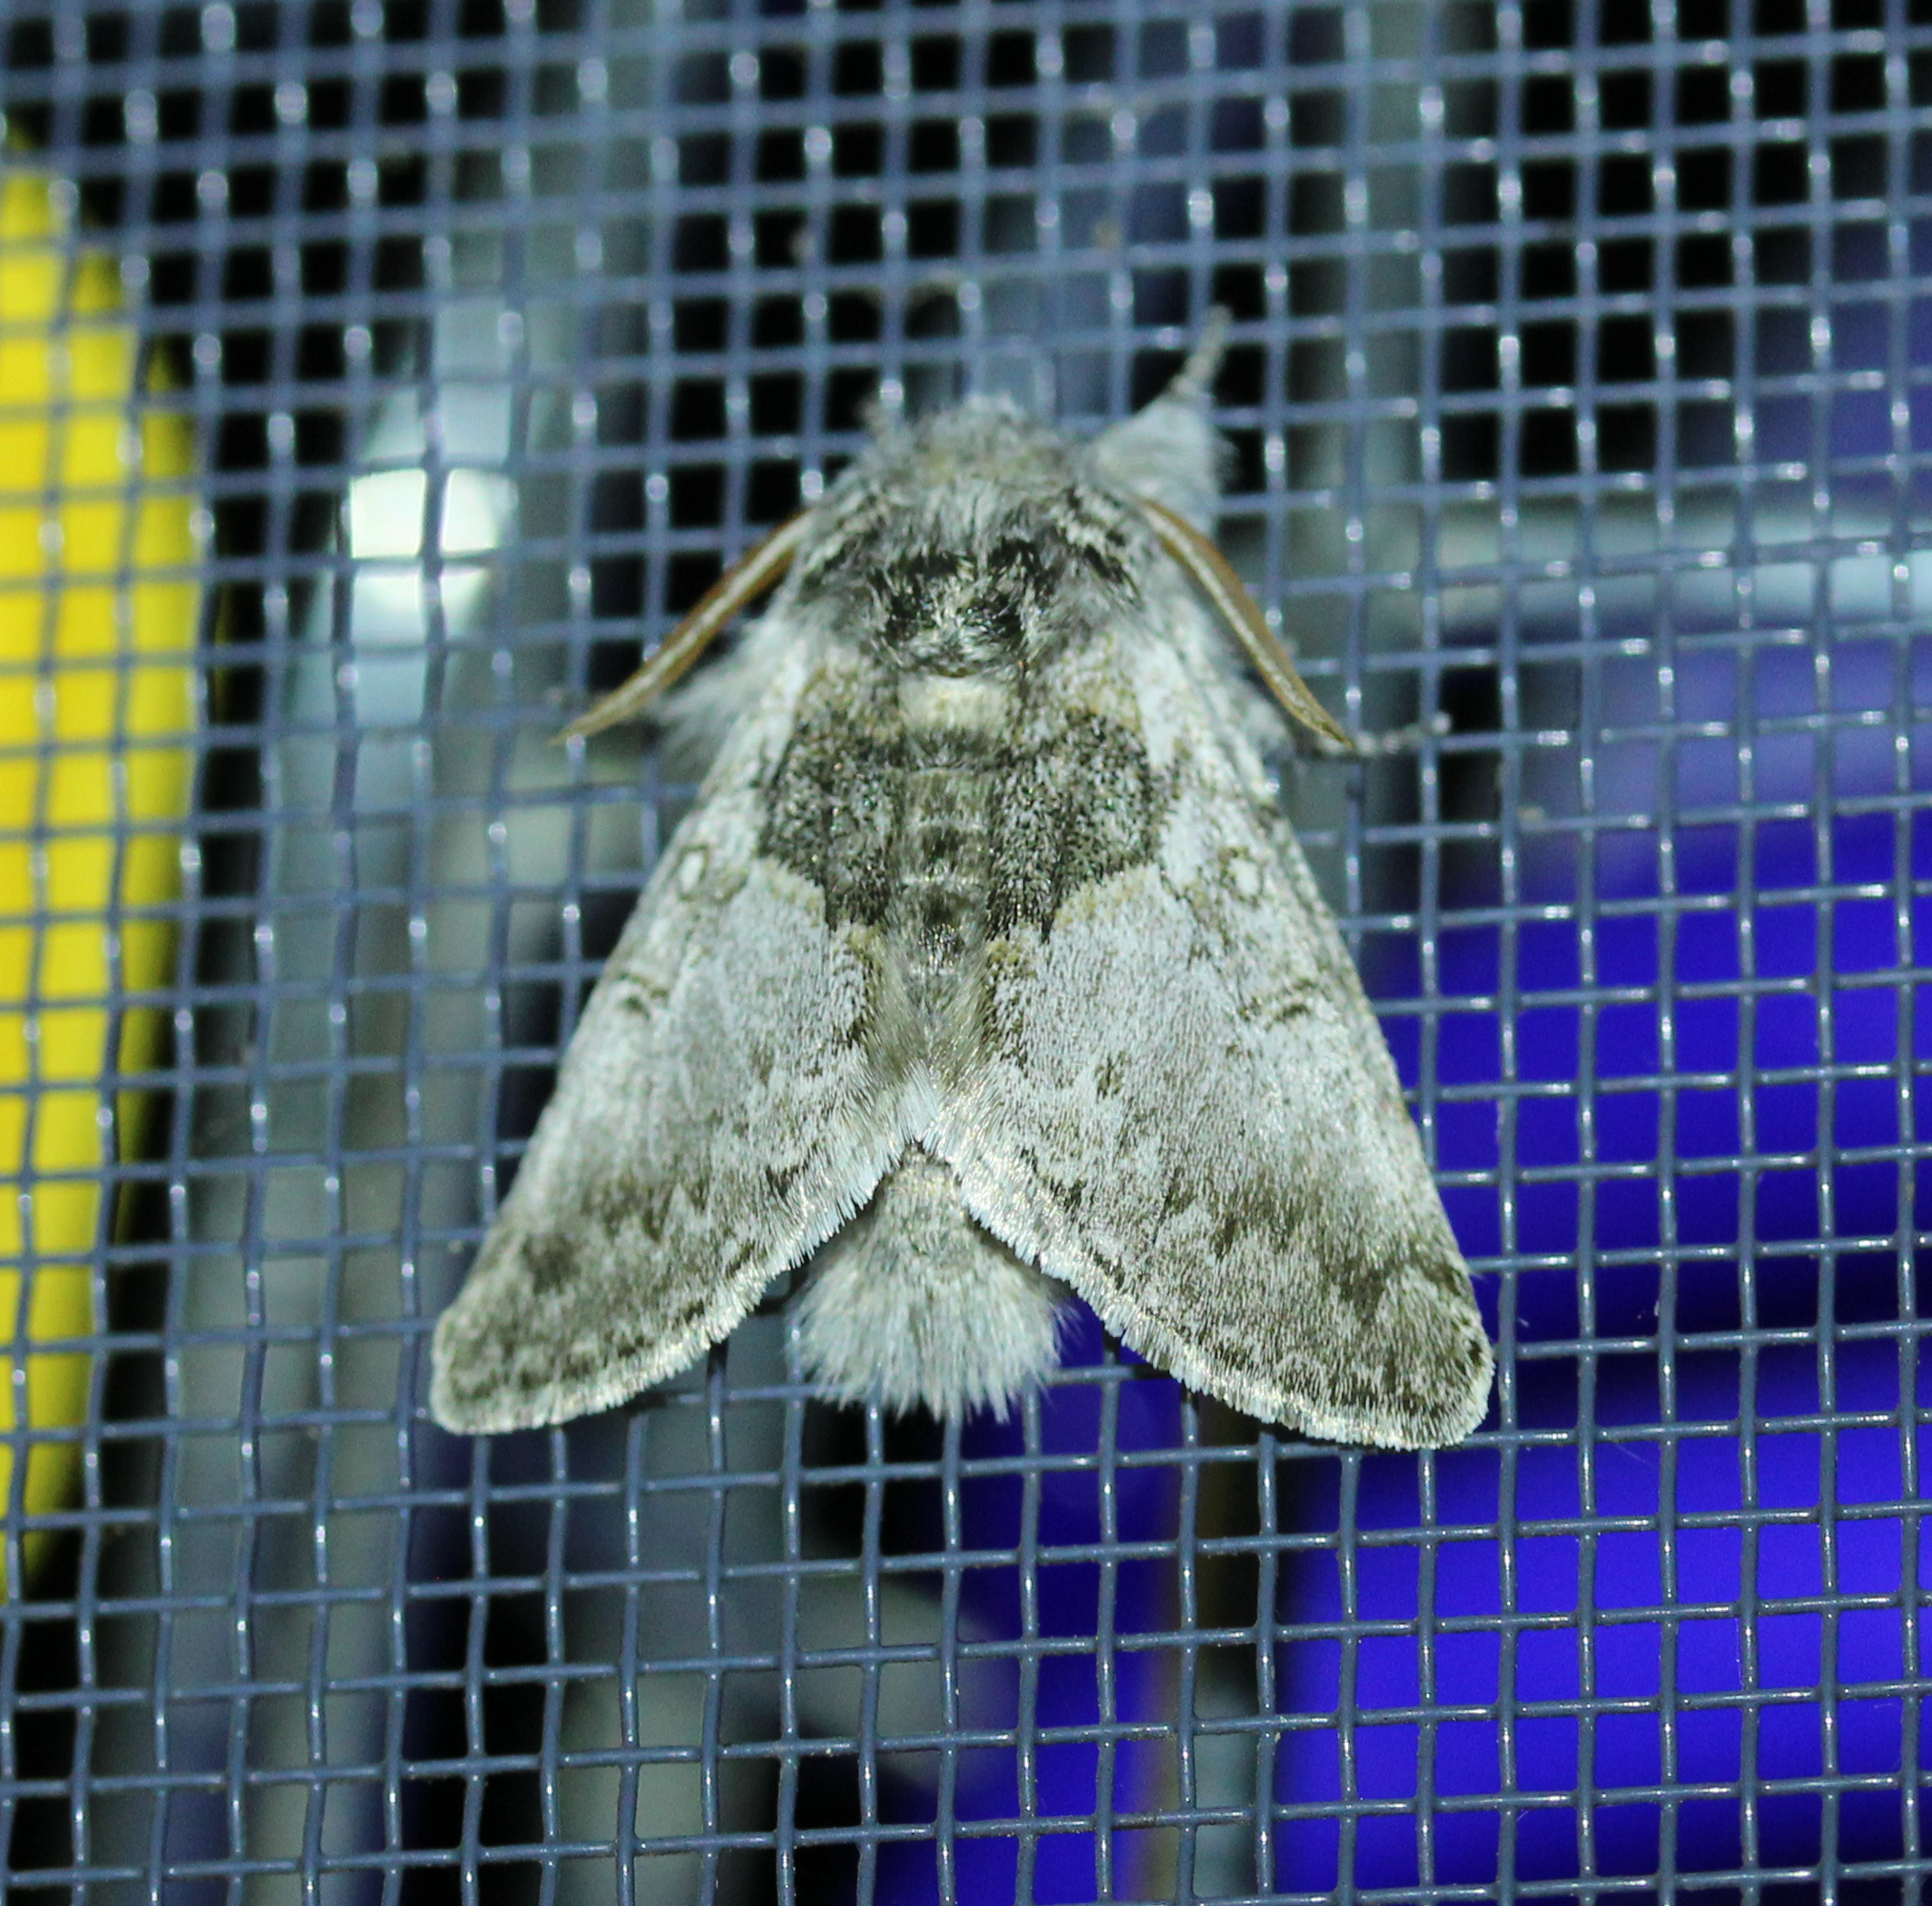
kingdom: Animalia
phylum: Arthropoda
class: Insecta
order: Lepidoptera
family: Noctuidae
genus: Colocasia
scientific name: Colocasia flavicornis
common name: Saddled yellowhorn
